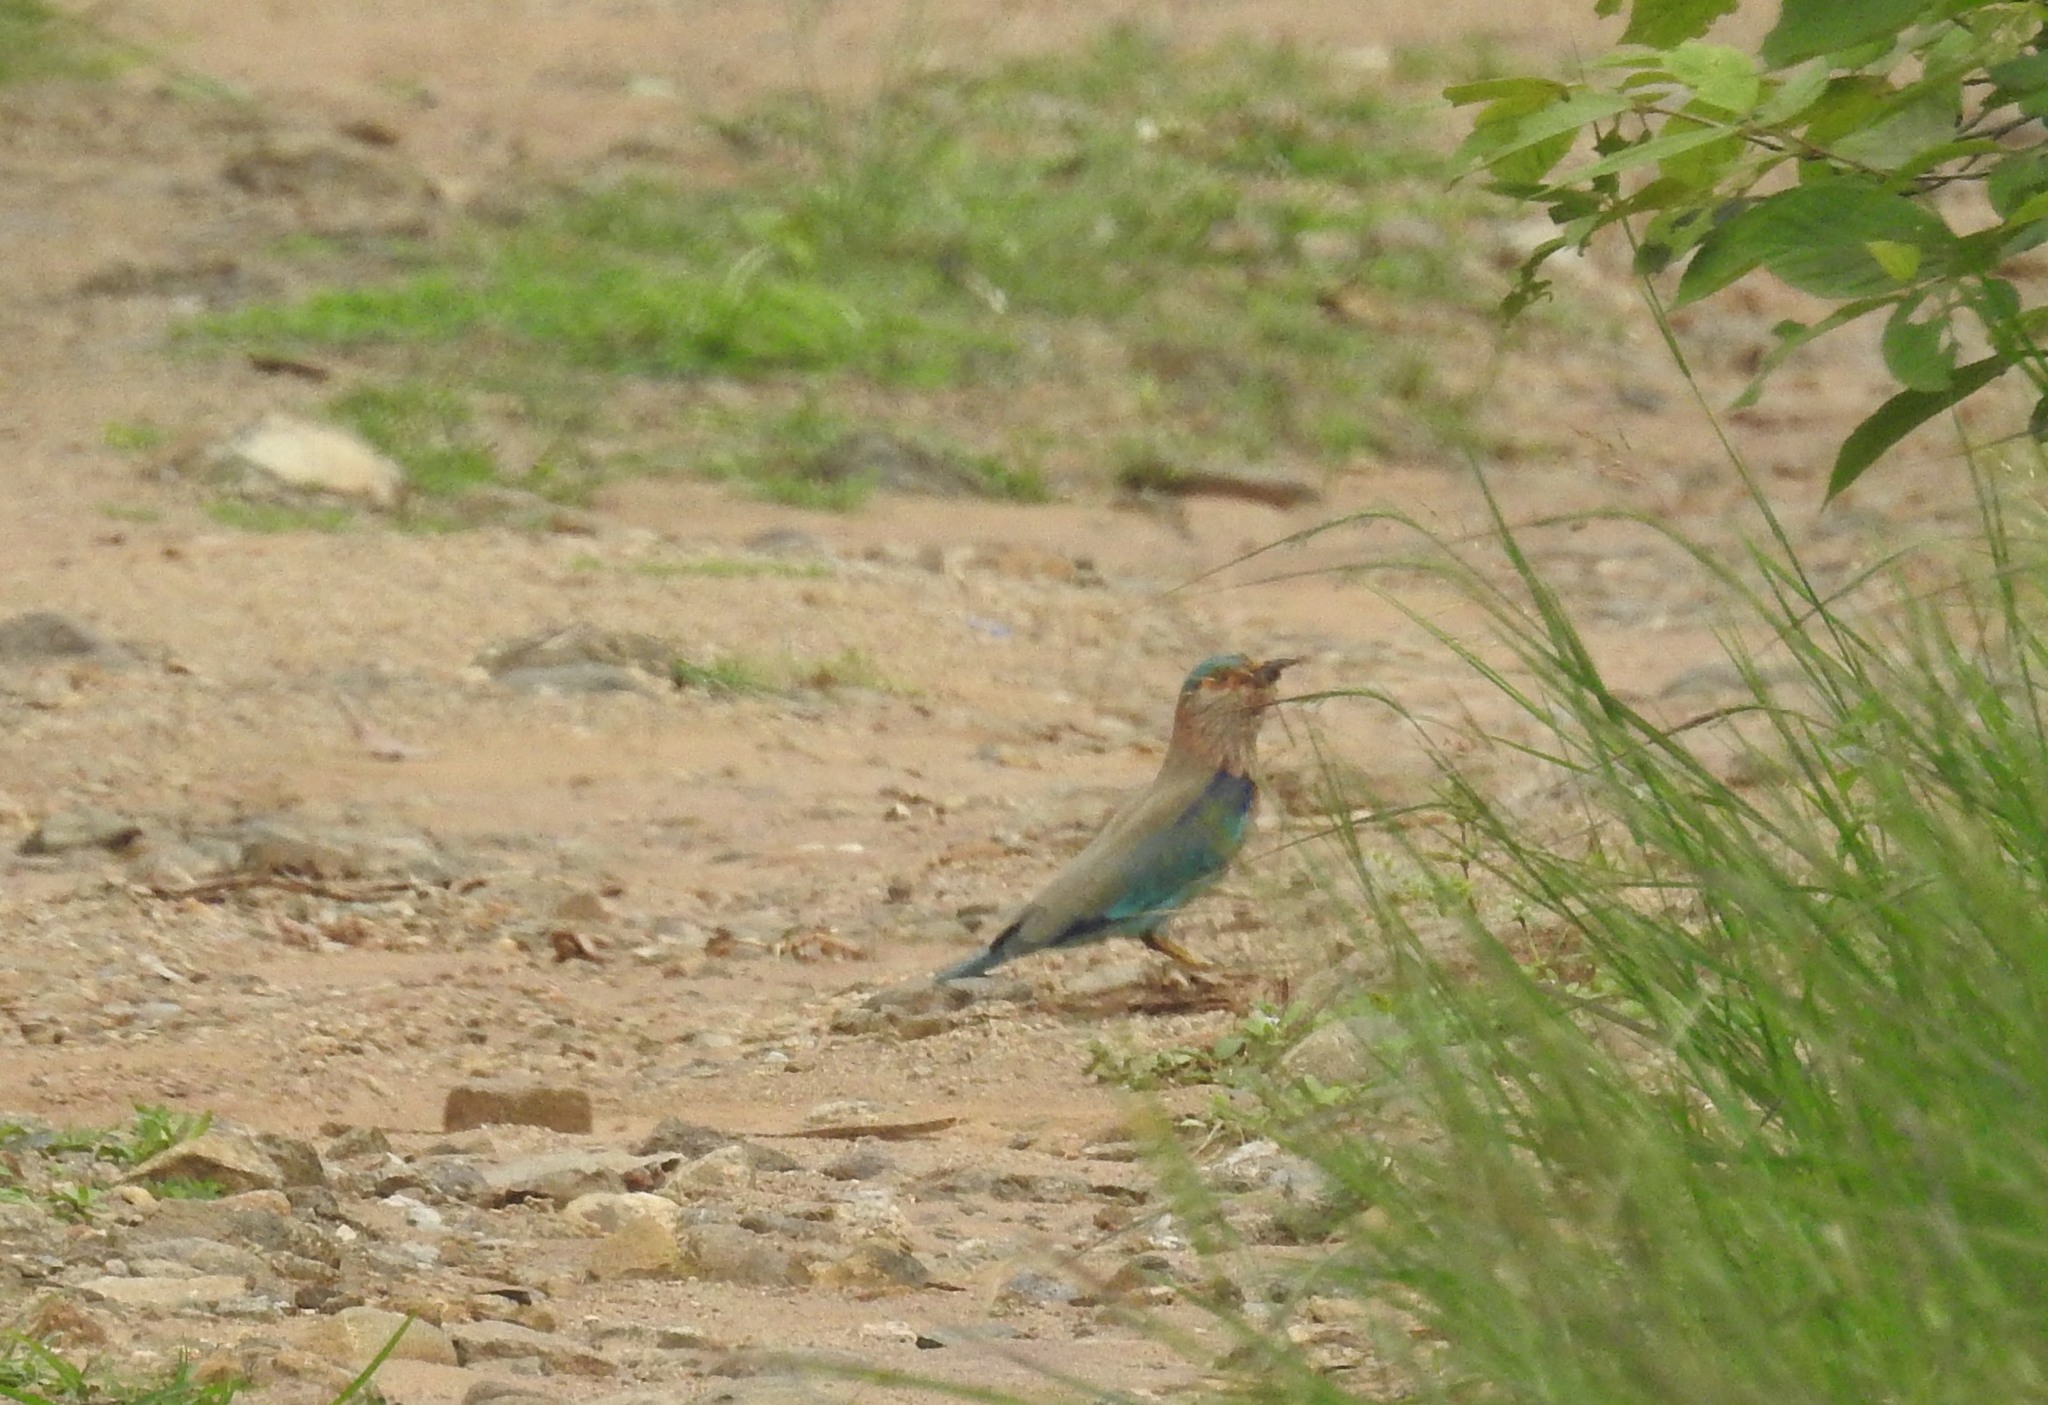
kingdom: Animalia
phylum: Chordata
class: Aves
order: Coraciiformes
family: Coraciidae
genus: Coracias
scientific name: Coracias benghalensis
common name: Indian roller
